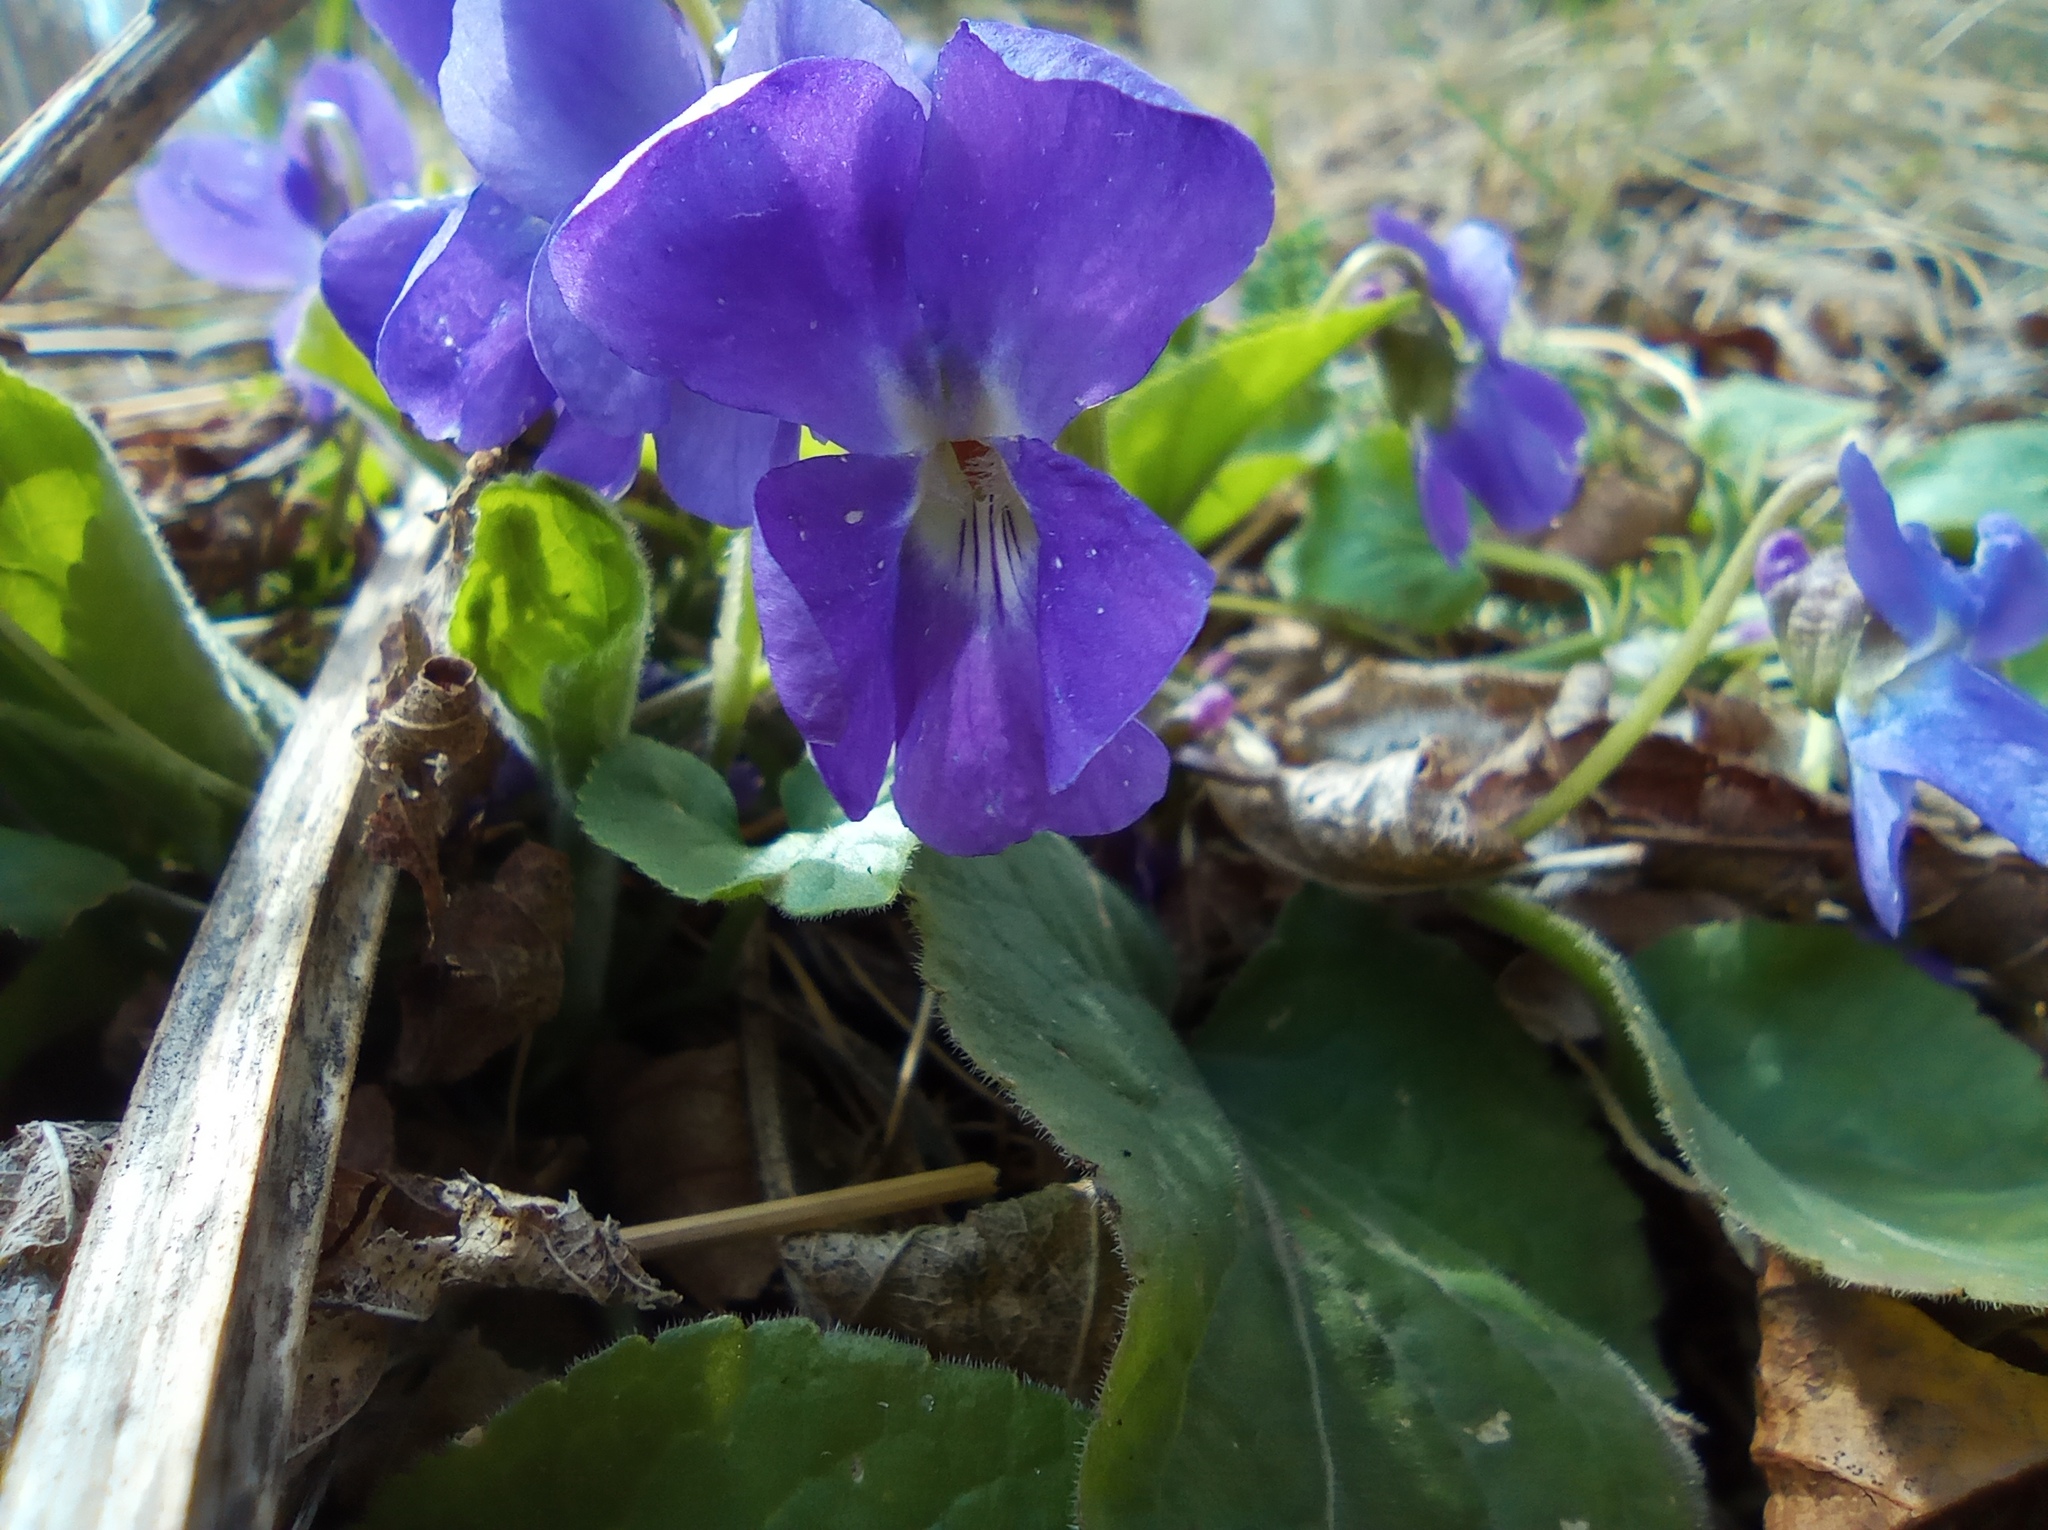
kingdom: Plantae
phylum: Tracheophyta
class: Magnoliopsida
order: Malpighiales
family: Violaceae
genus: Viola
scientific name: Viola hirta
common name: Hairy violet
